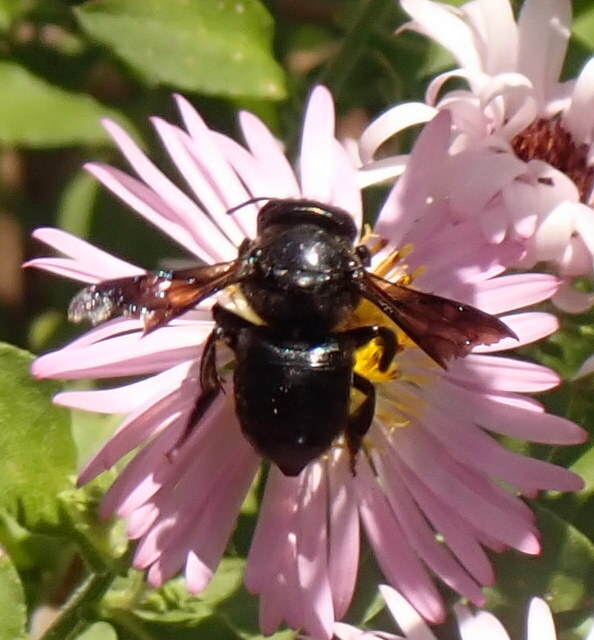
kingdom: Animalia
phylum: Arthropoda
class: Insecta
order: Hymenoptera
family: Megachilidae
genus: Megachile
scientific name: Megachile xylocopoides
